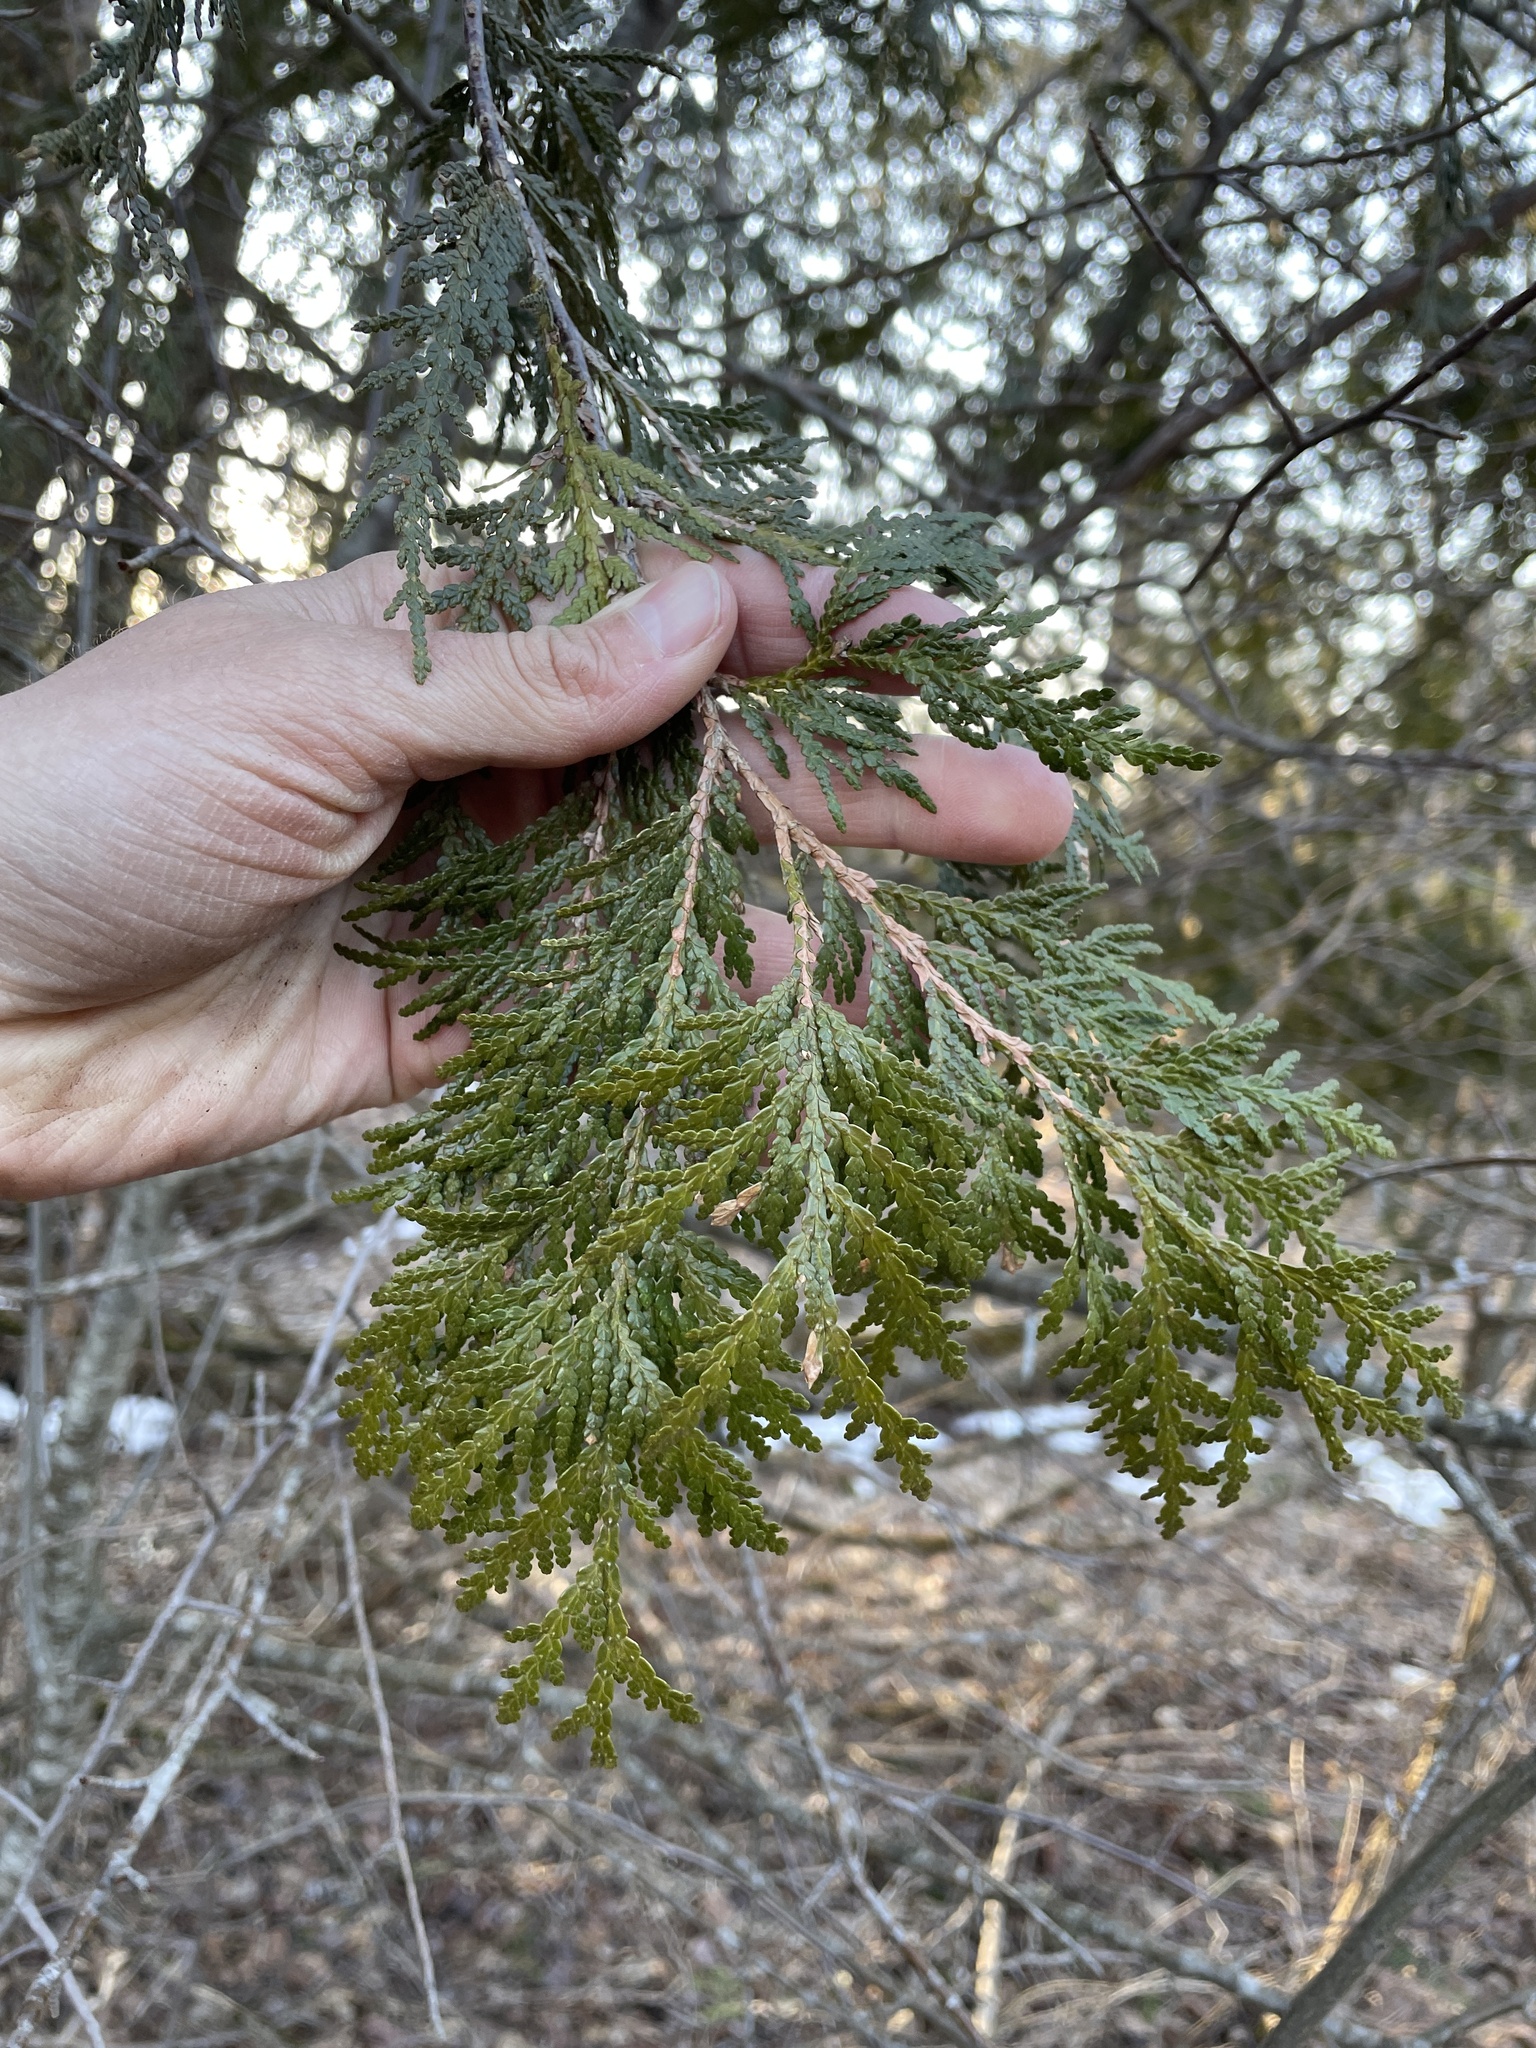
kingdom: Plantae
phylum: Tracheophyta
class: Pinopsida
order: Pinales
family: Cupressaceae
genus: Thuja
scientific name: Thuja occidentalis
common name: Northern white-cedar
